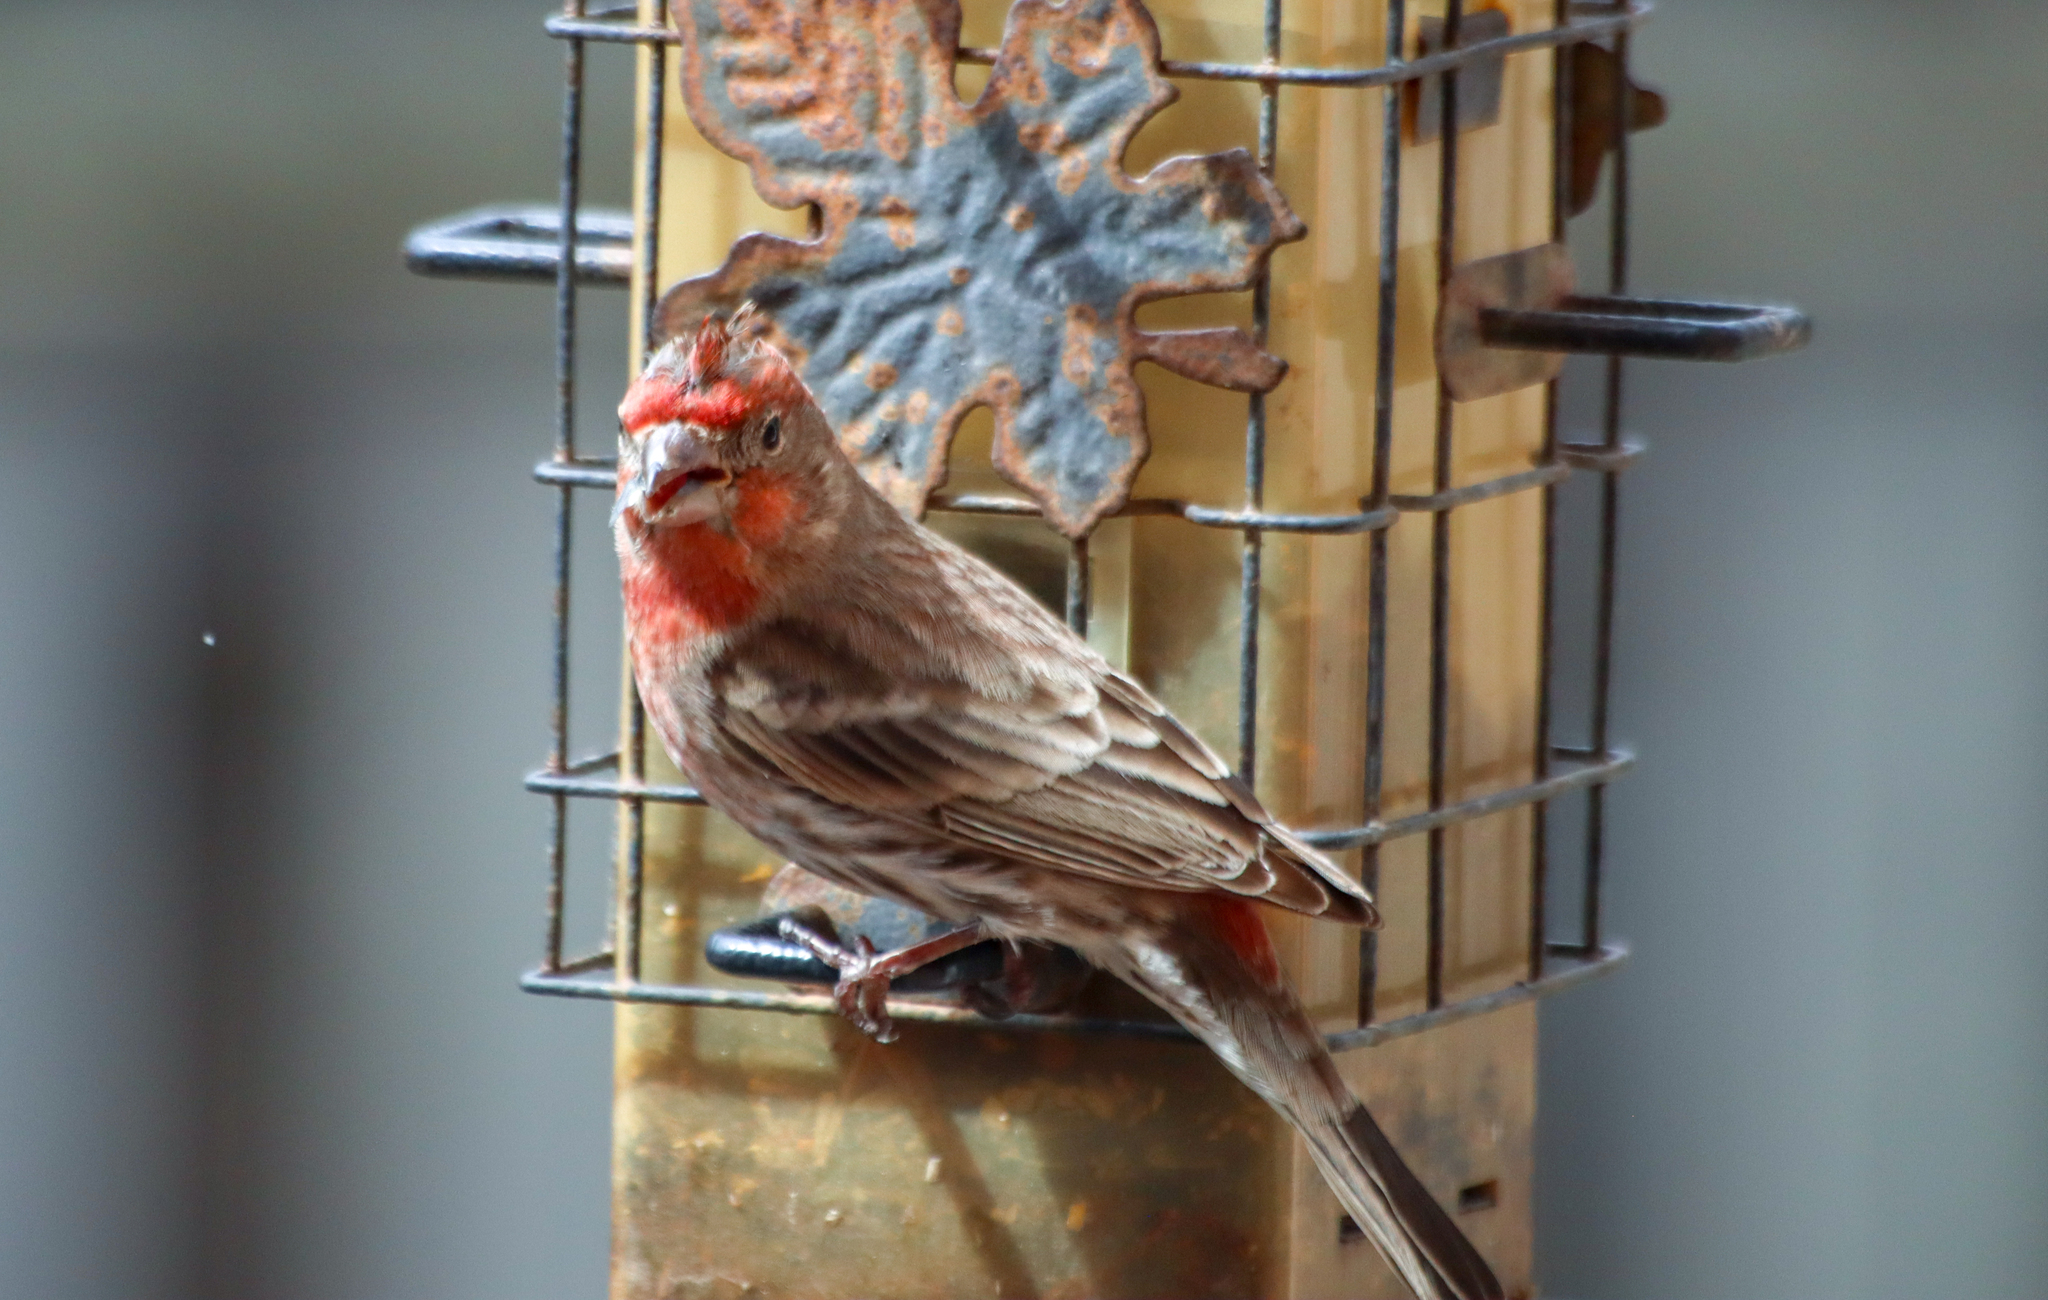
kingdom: Animalia
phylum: Chordata
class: Aves
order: Passeriformes
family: Fringillidae
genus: Haemorhous
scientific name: Haemorhous mexicanus
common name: House finch
